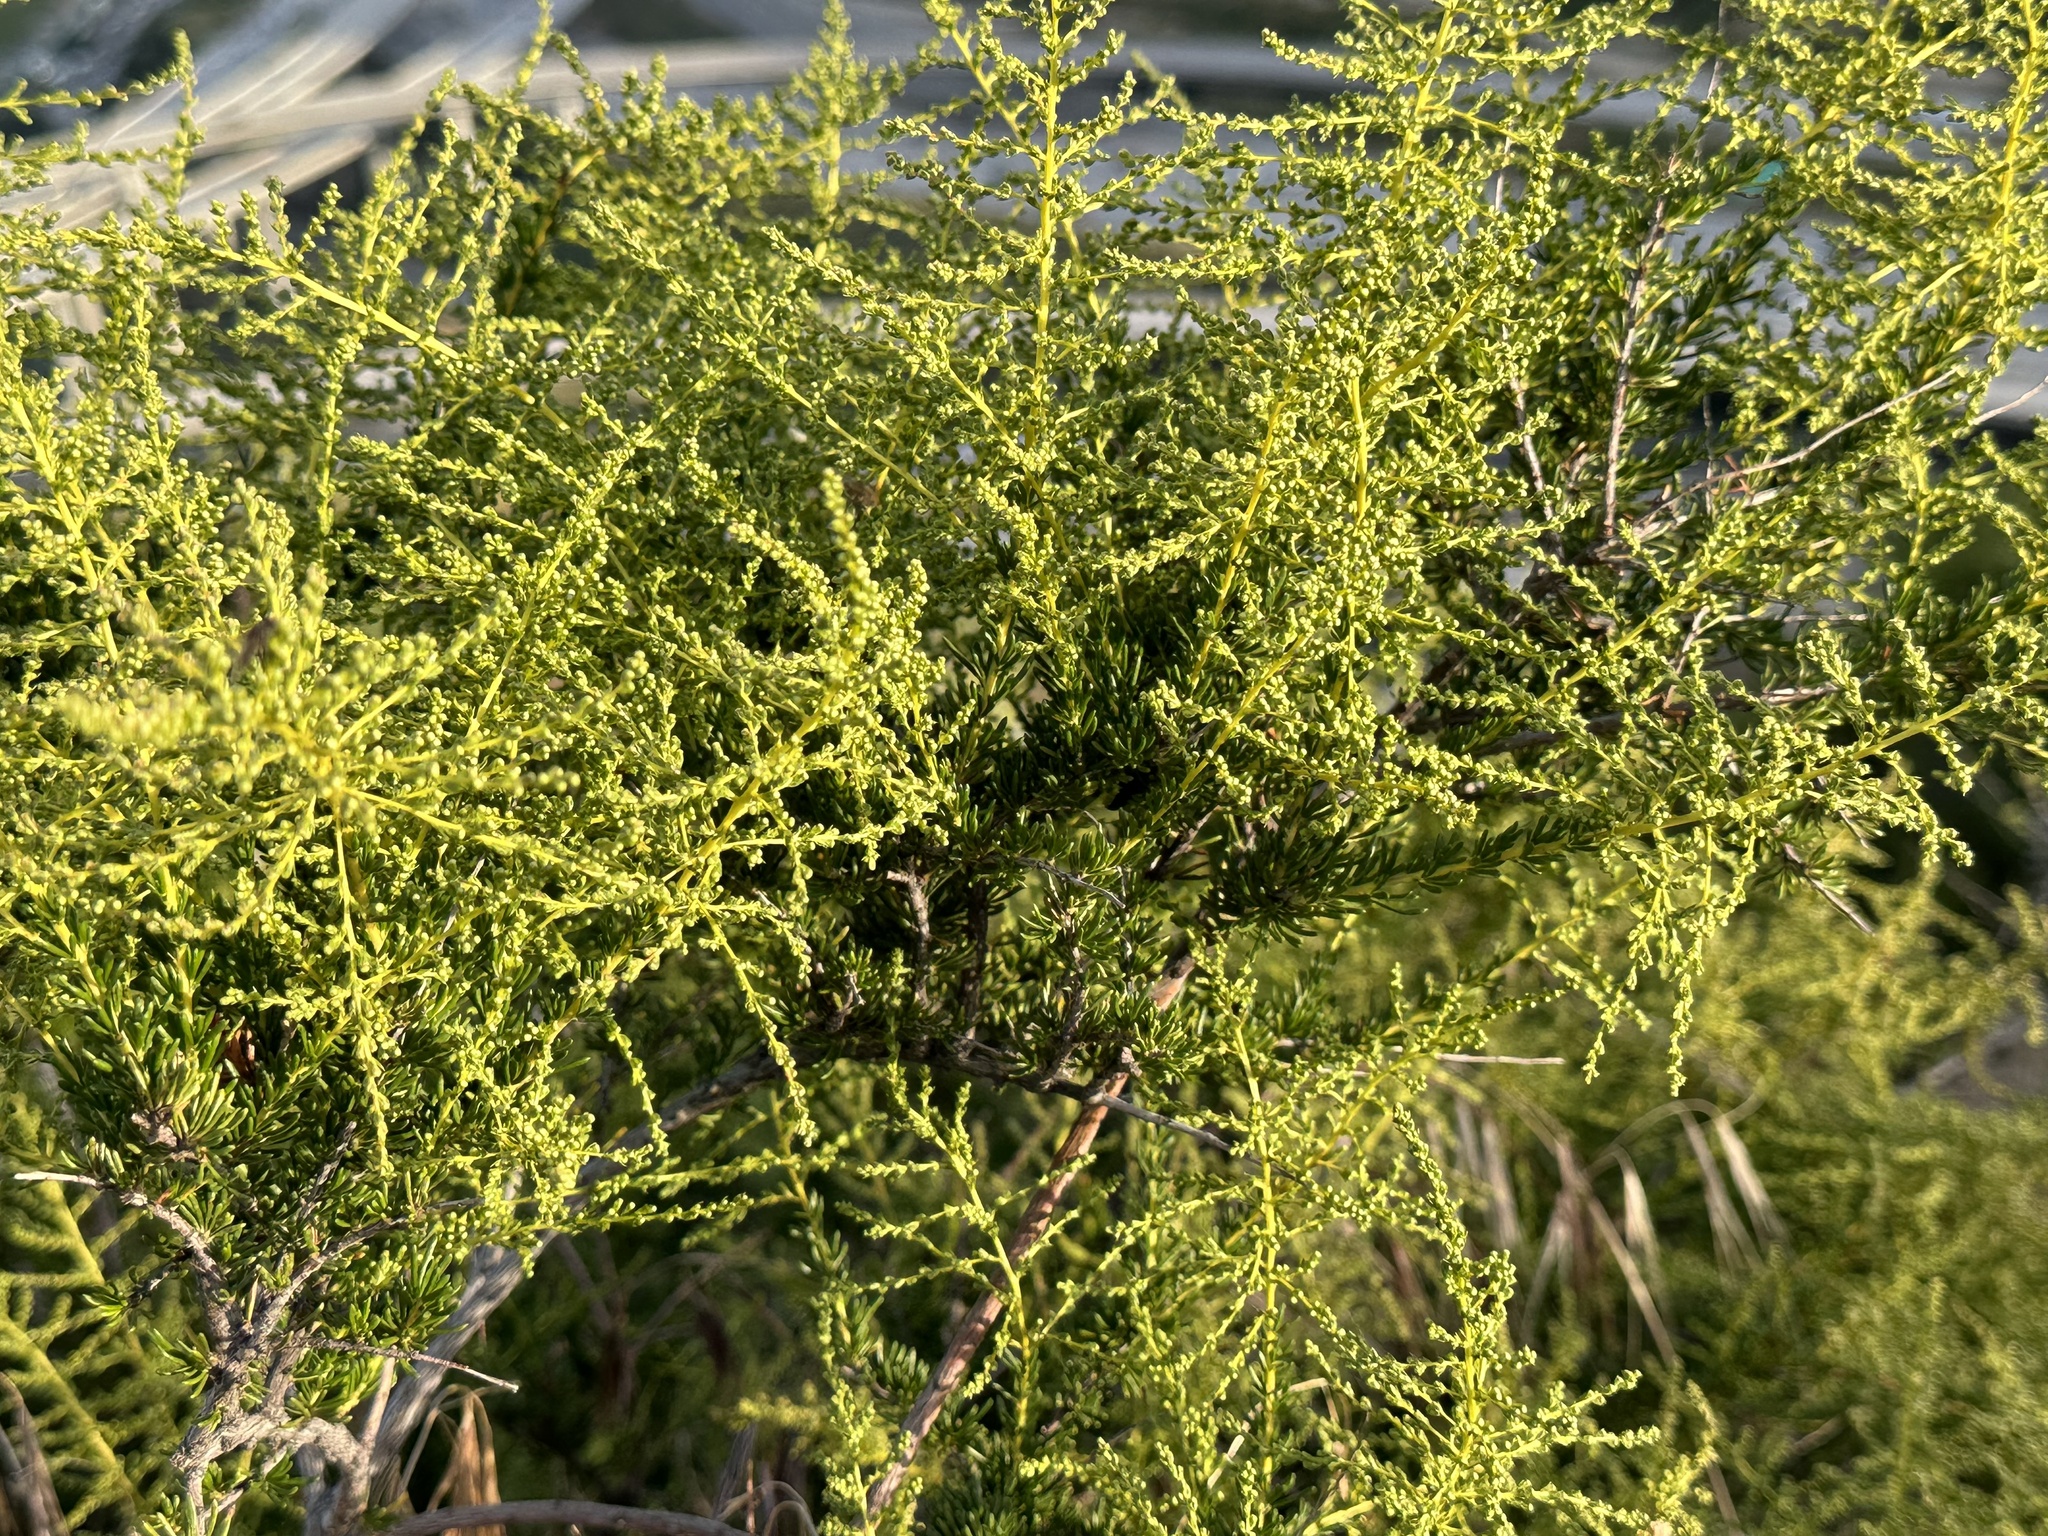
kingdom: Plantae
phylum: Tracheophyta
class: Magnoliopsida
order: Rosales
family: Rosaceae
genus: Adenostoma
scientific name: Adenostoma fasciculatum
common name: Chamise
